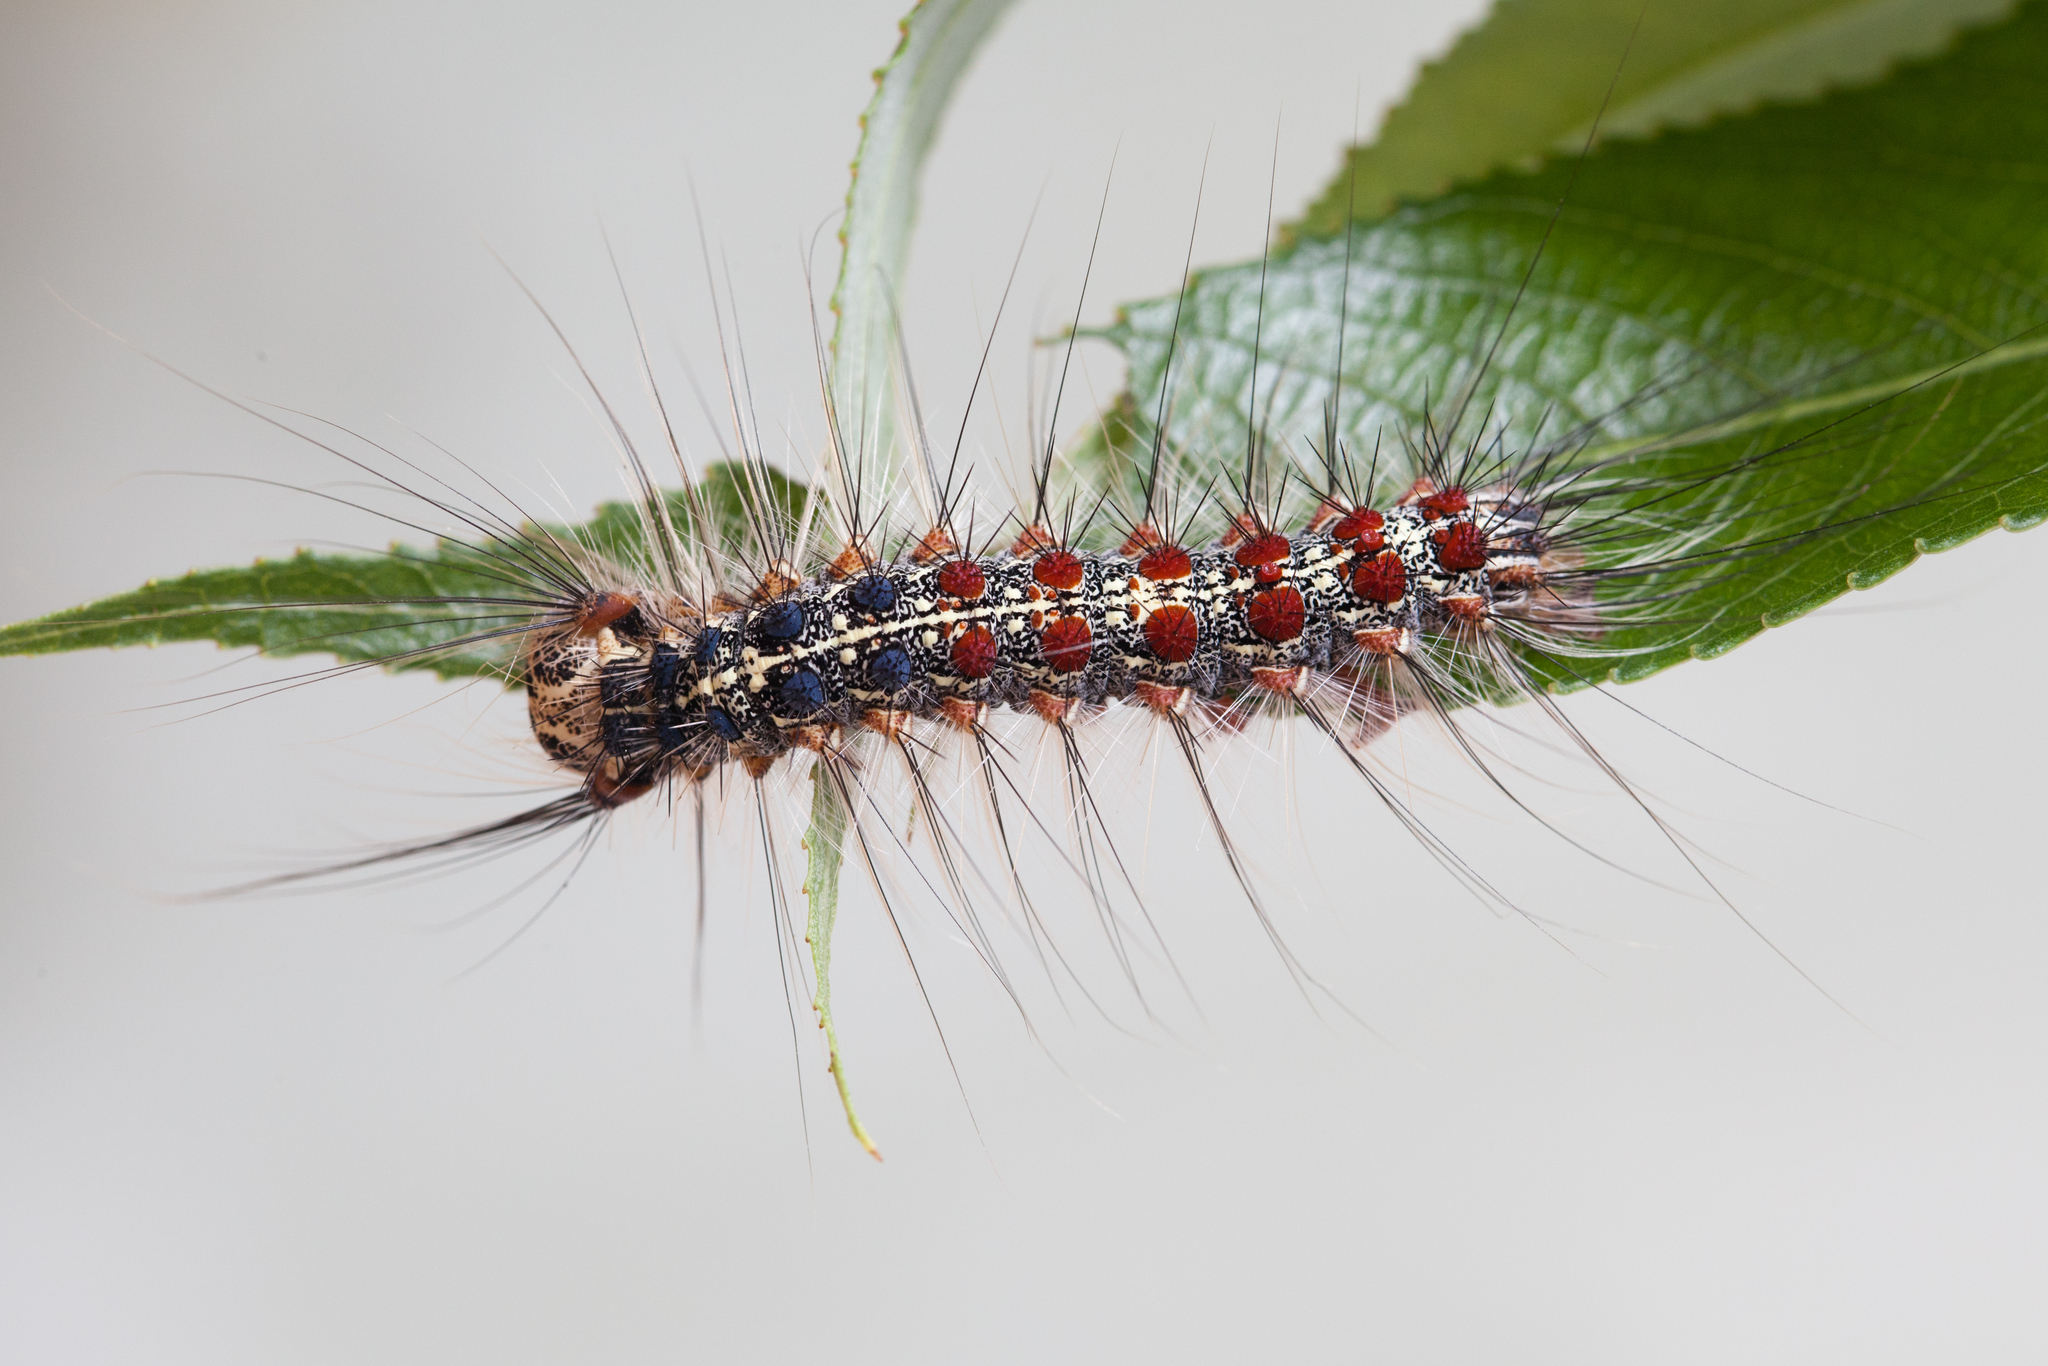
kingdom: Animalia
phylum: Arthropoda
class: Insecta
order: Lepidoptera
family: Erebidae
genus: Lymantria
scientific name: Lymantria dispar
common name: Gypsy moth
